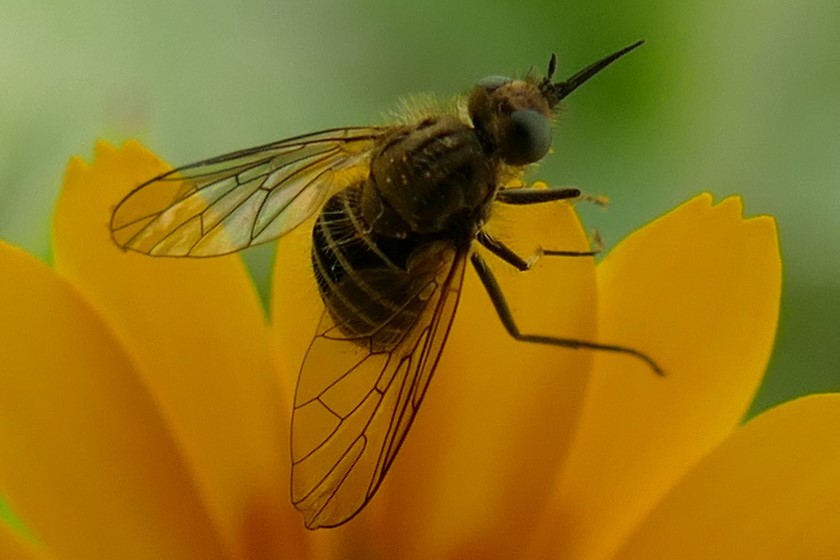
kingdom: Animalia
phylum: Arthropoda
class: Insecta
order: Diptera
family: Bombyliidae
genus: Protypusia
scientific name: Protypusia grata
